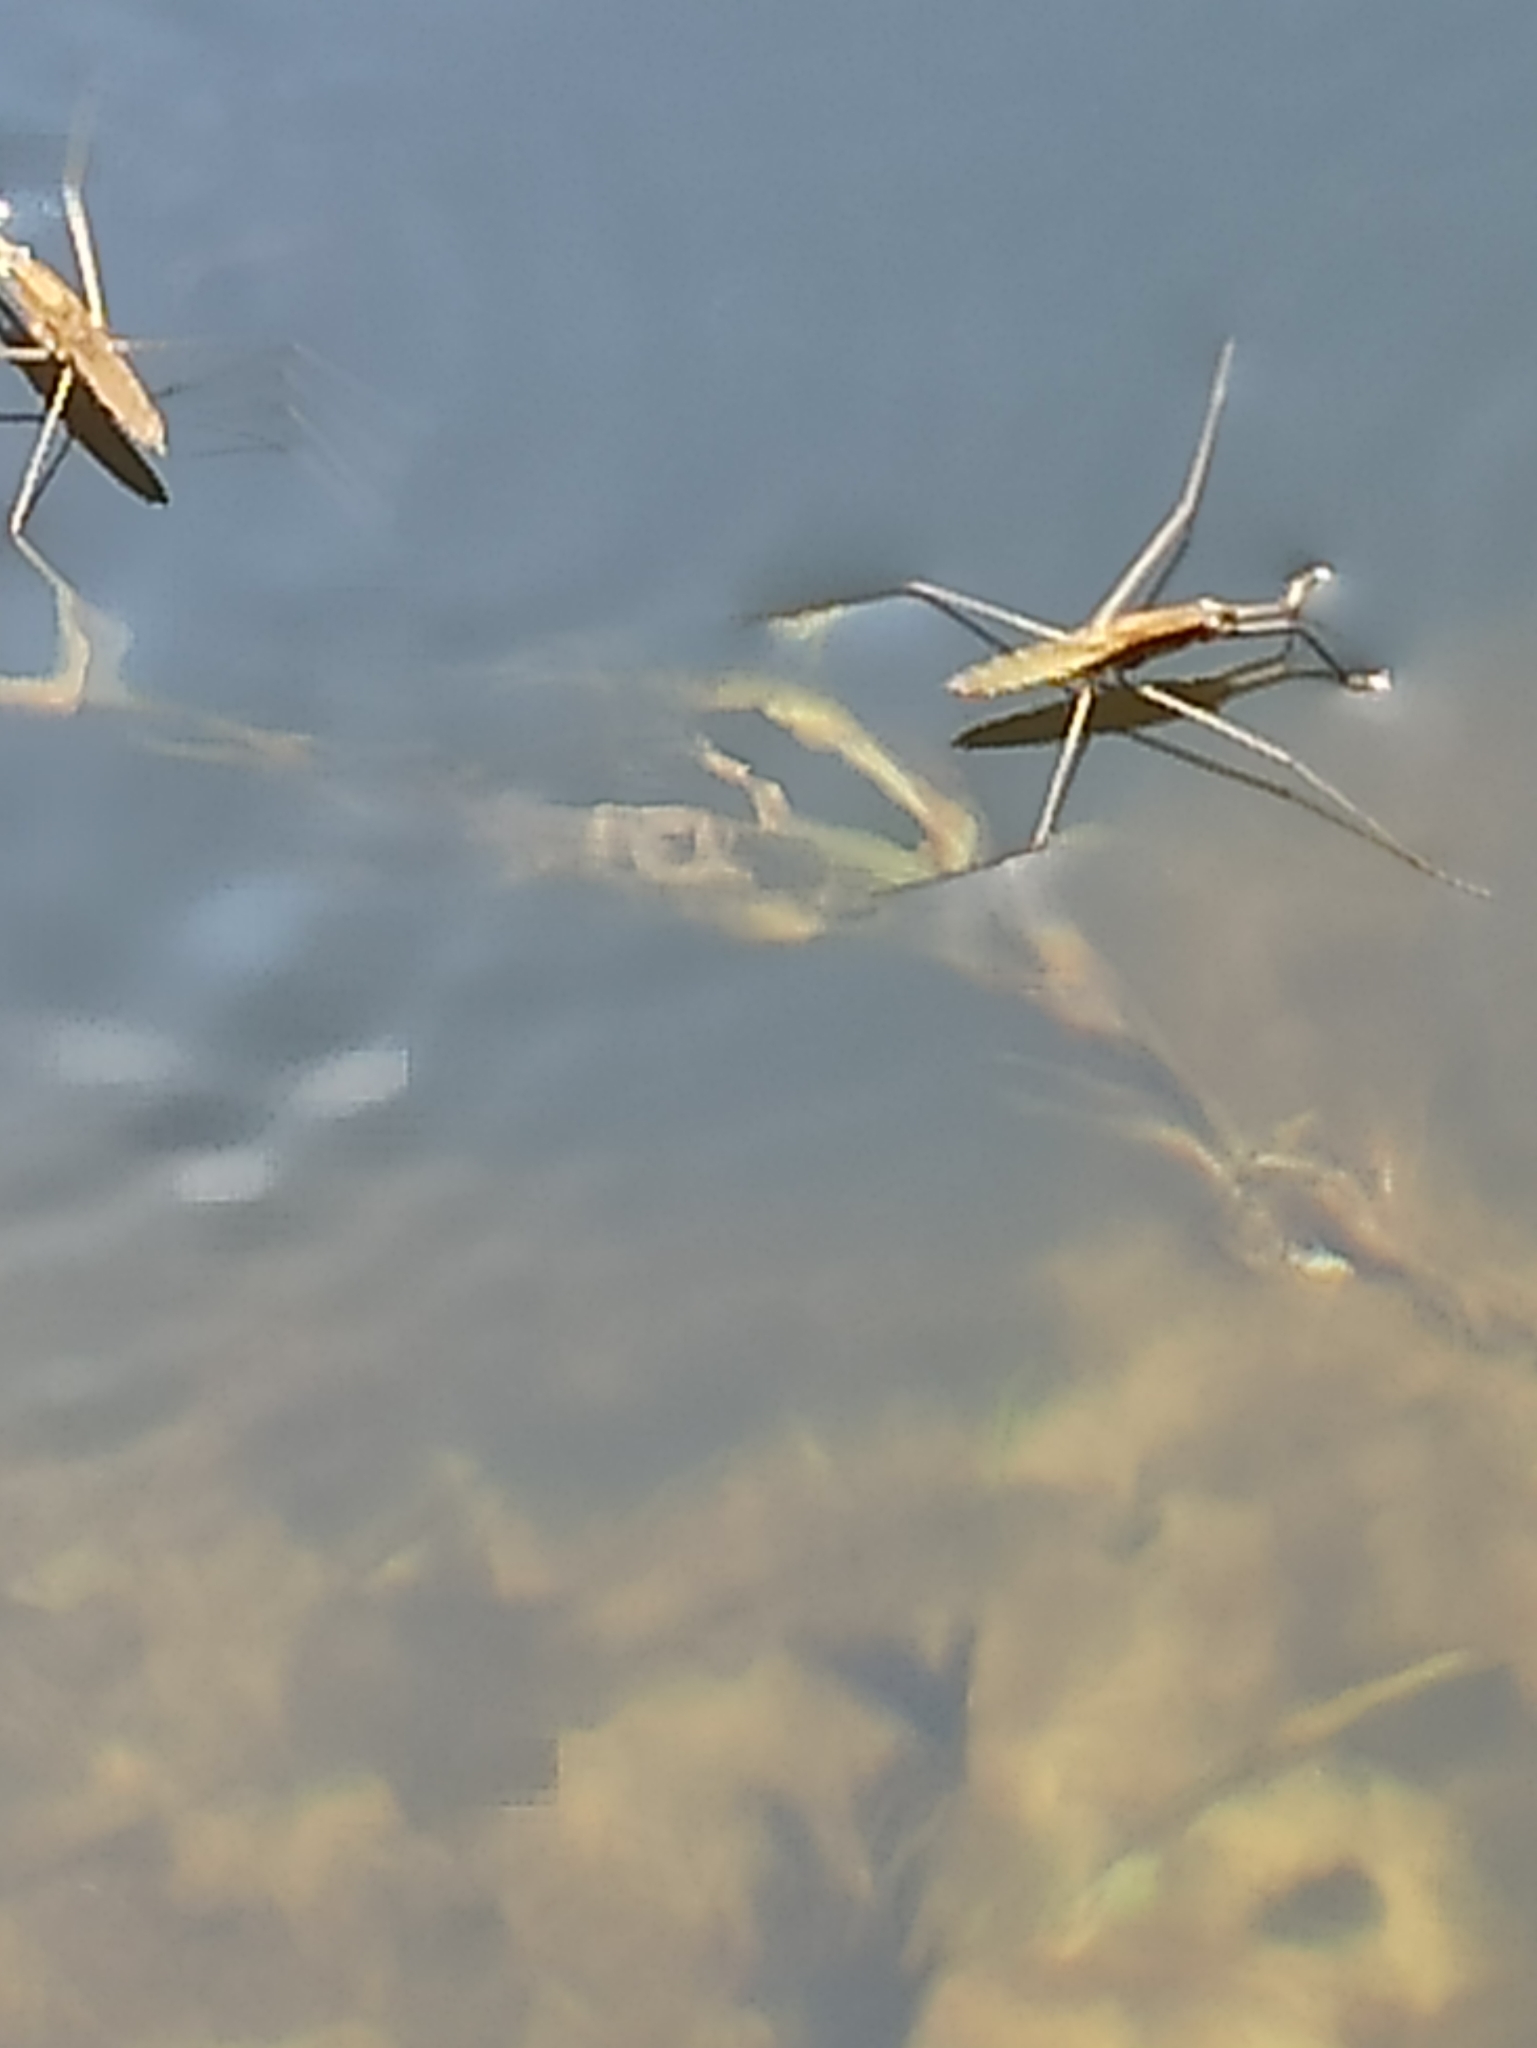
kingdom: Animalia
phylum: Arthropoda
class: Insecta
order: Hemiptera
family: Gerridae
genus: Aquarius
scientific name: Aquarius najas
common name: River skater
